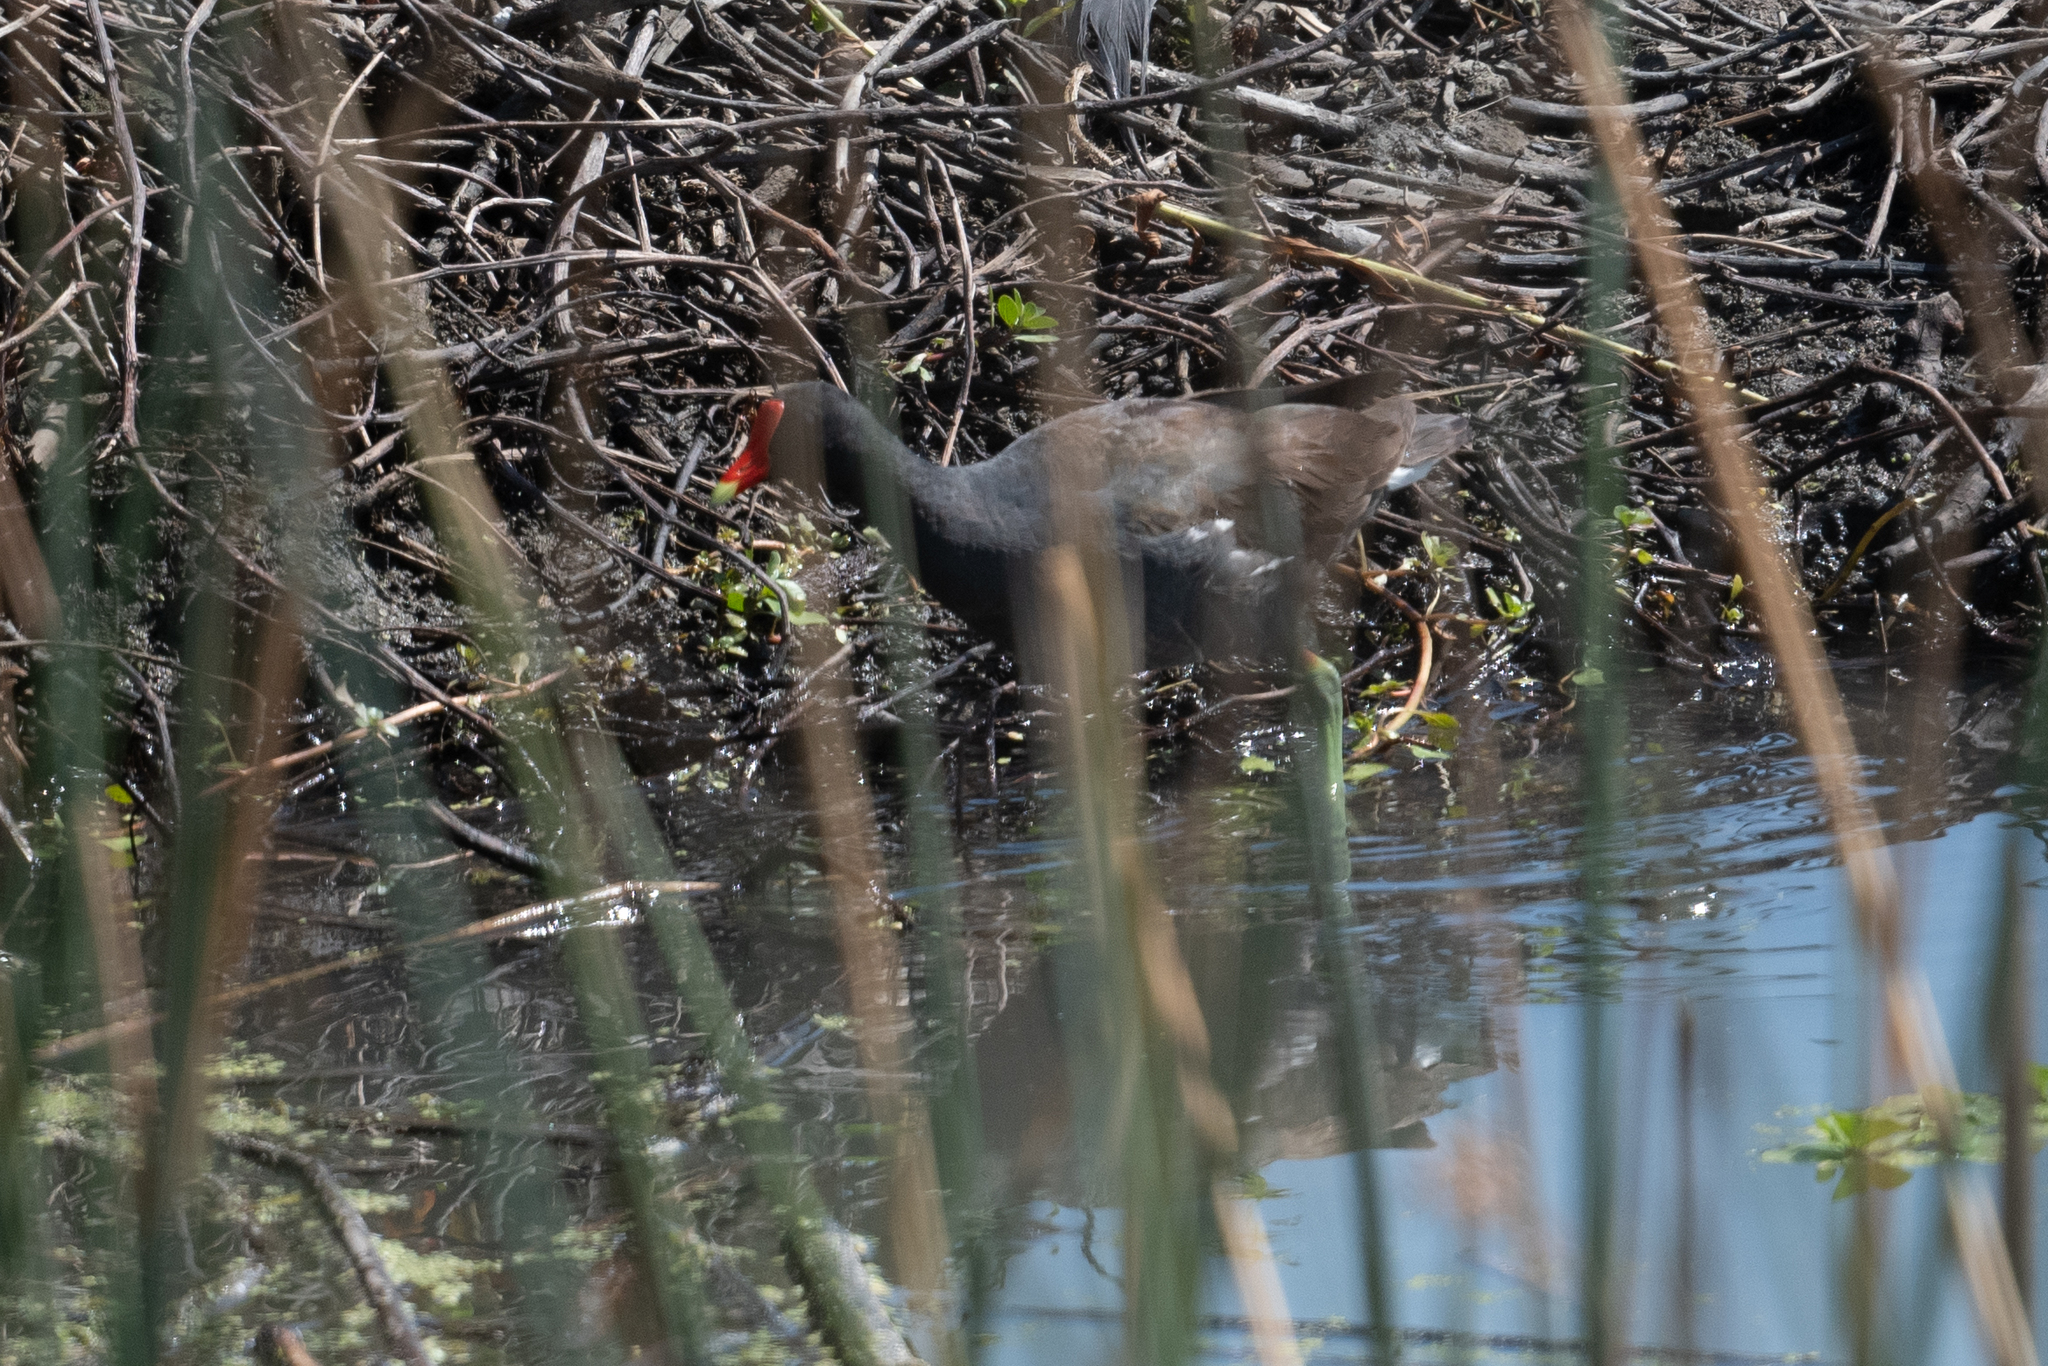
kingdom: Animalia
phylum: Chordata
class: Aves
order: Gruiformes
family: Rallidae
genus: Gallinula
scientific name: Gallinula chloropus
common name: Common moorhen
